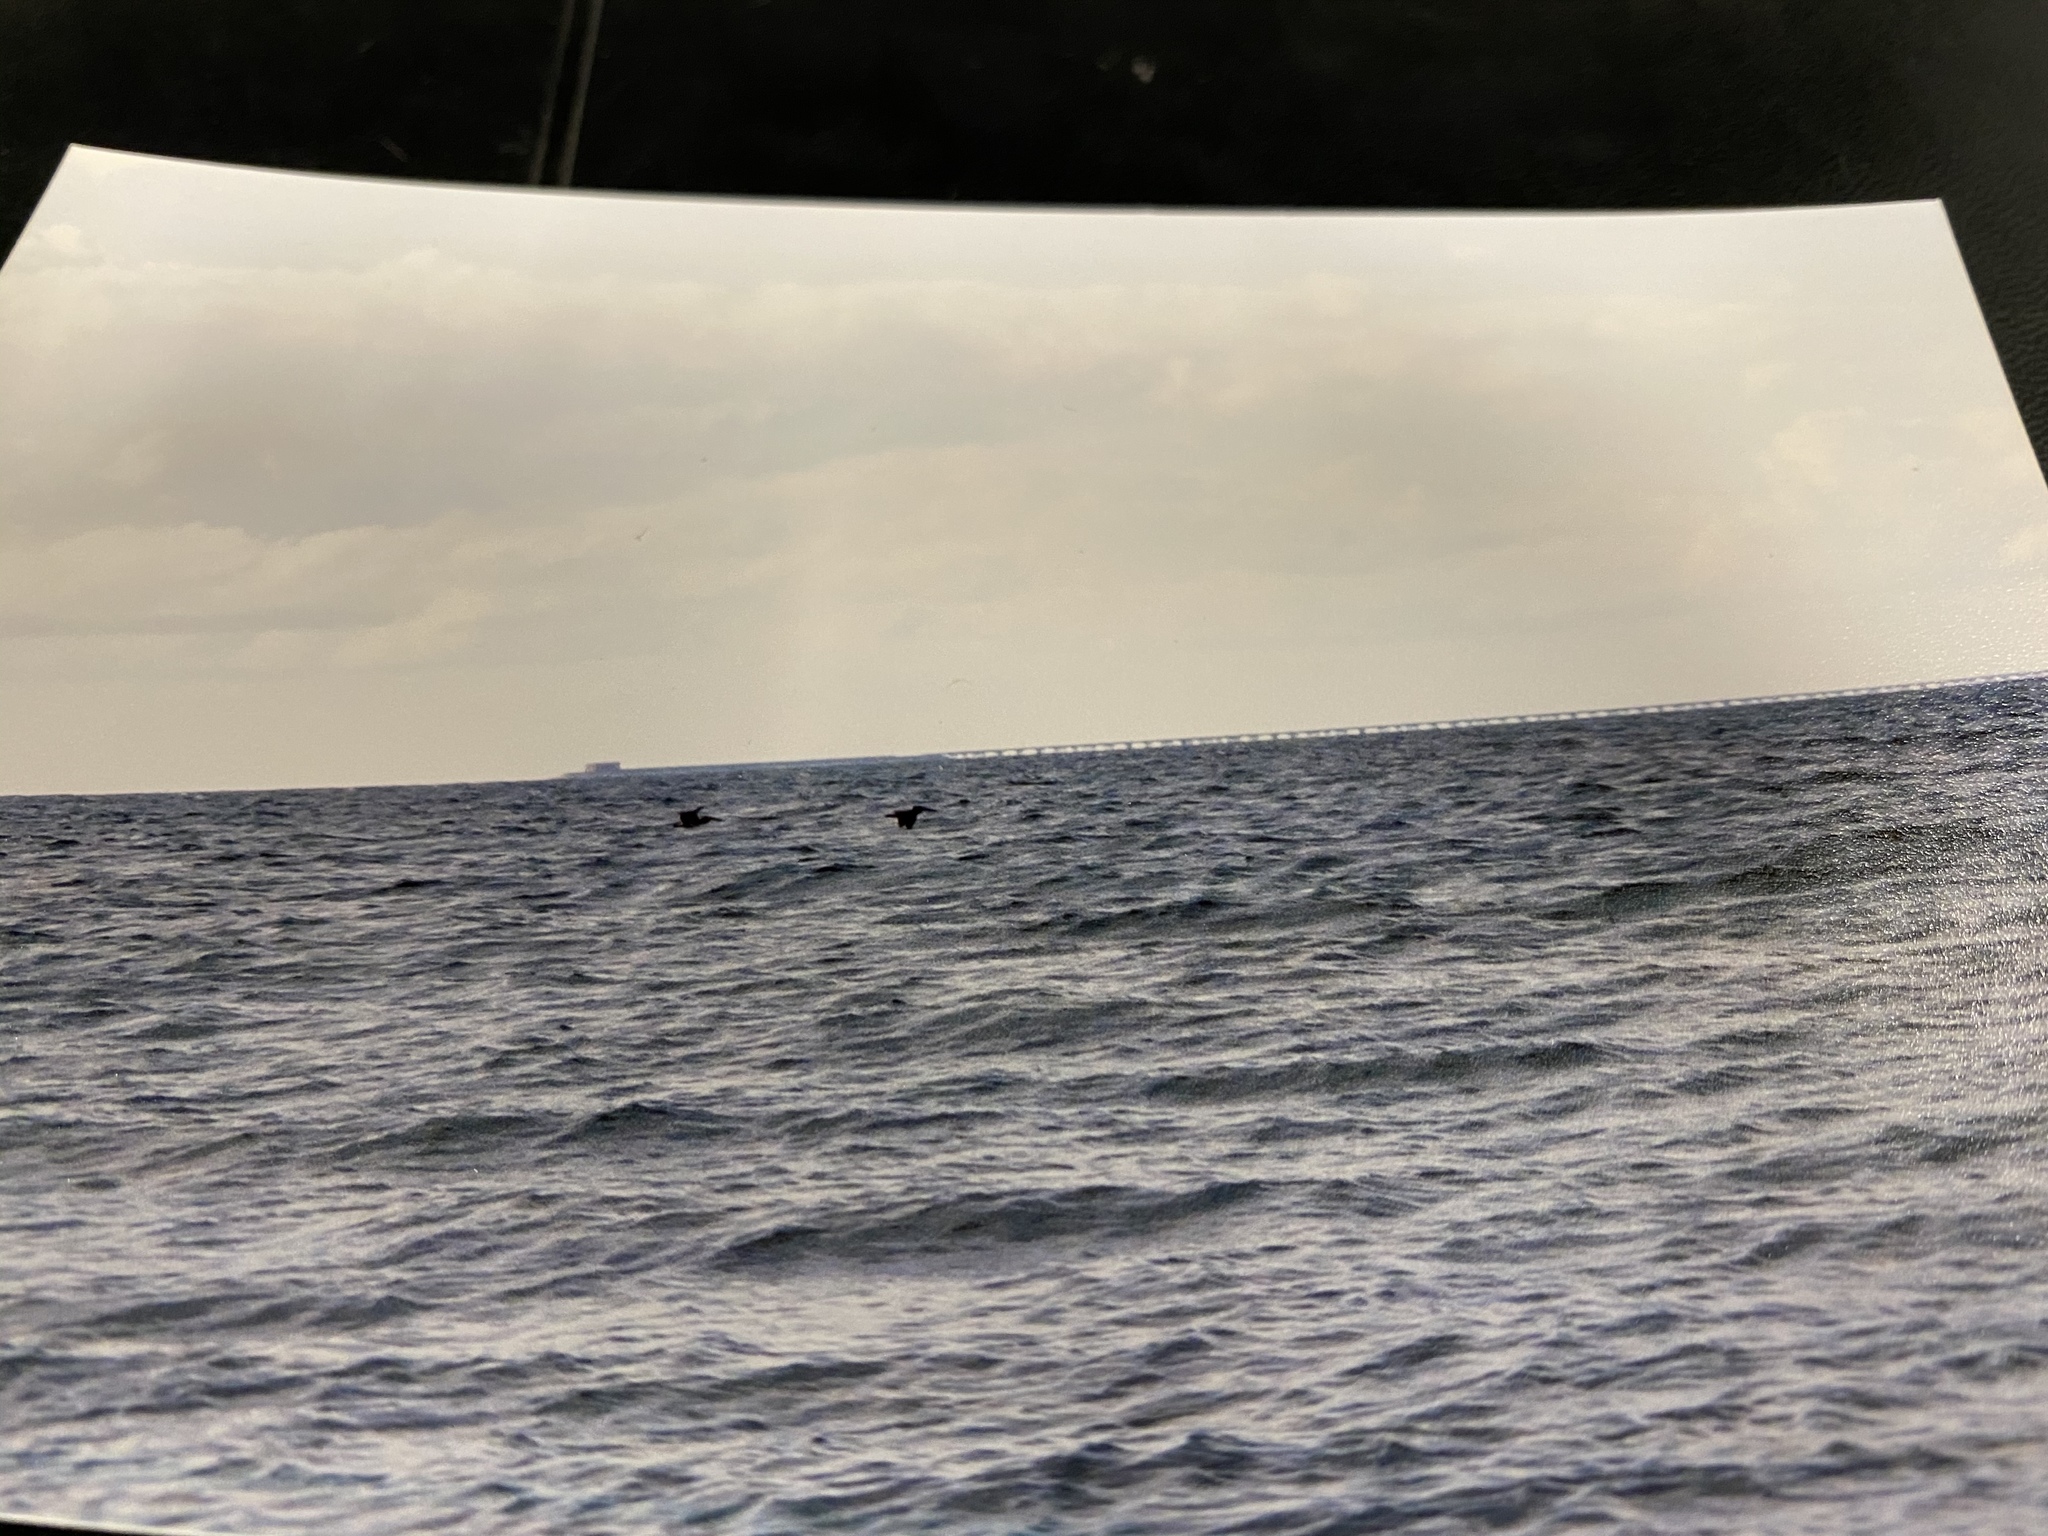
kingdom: Animalia
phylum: Chordata
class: Aves
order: Pelecaniformes
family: Pelecanidae
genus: Pelecanus
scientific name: Pelecanus occidentalis
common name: Brown pelican
